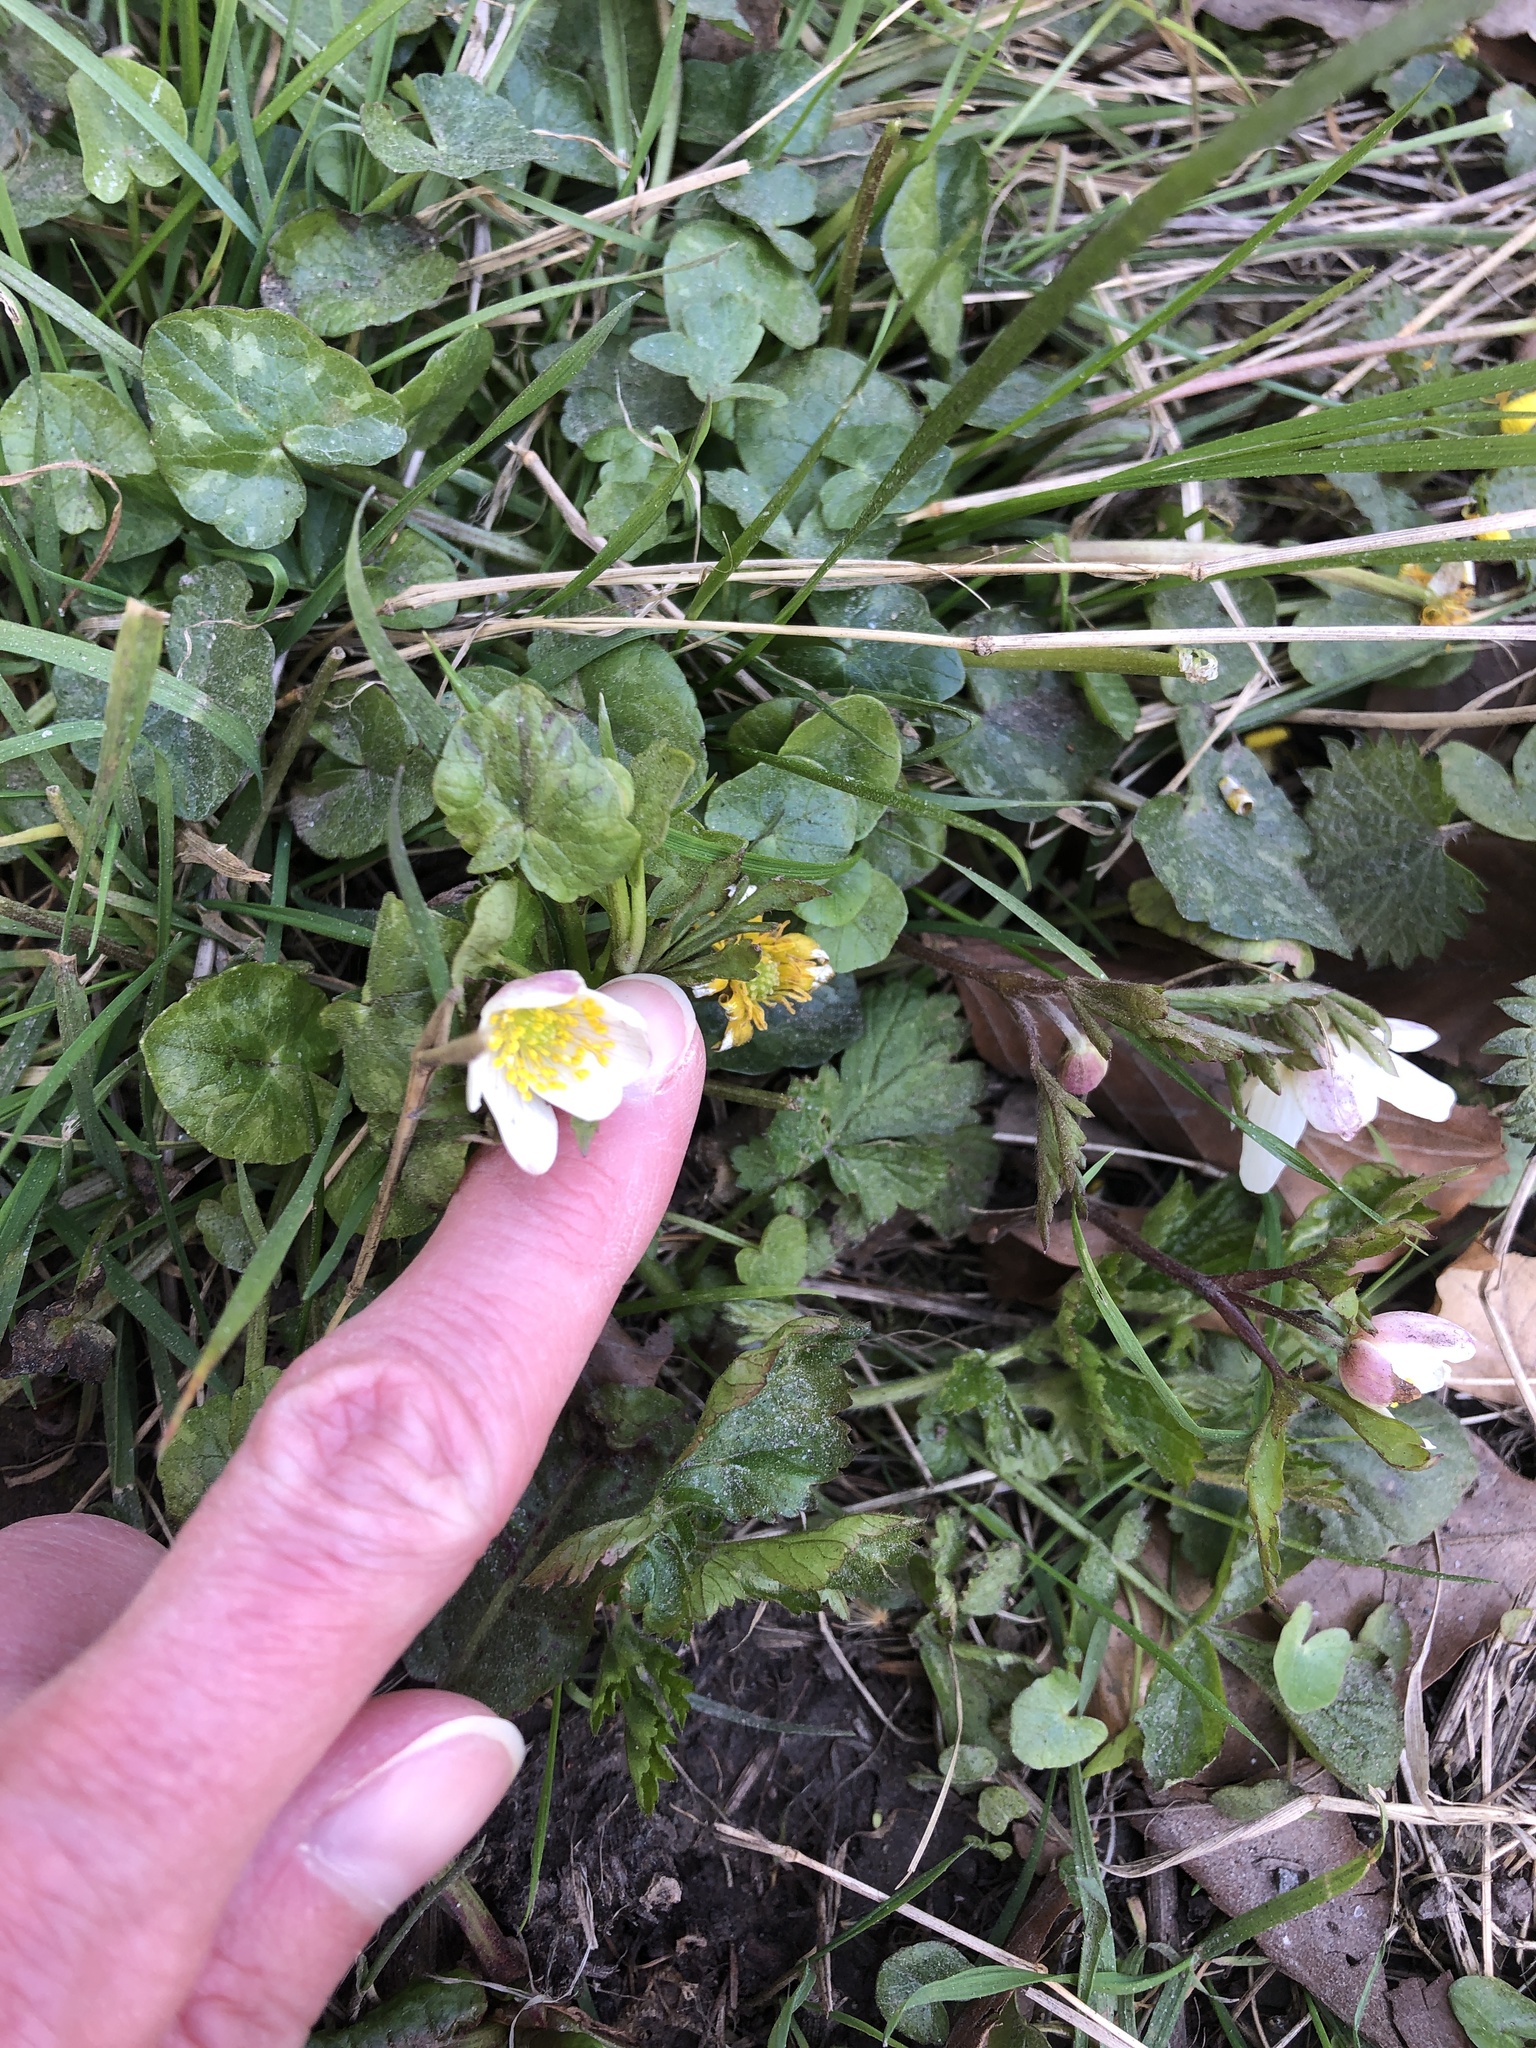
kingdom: Plantae
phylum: Tracheophyta
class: Magnoliopsida
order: Ranunculales
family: Ranunculaceae
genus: Anemone
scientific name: Anemone nemorosa
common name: Wood anemone
